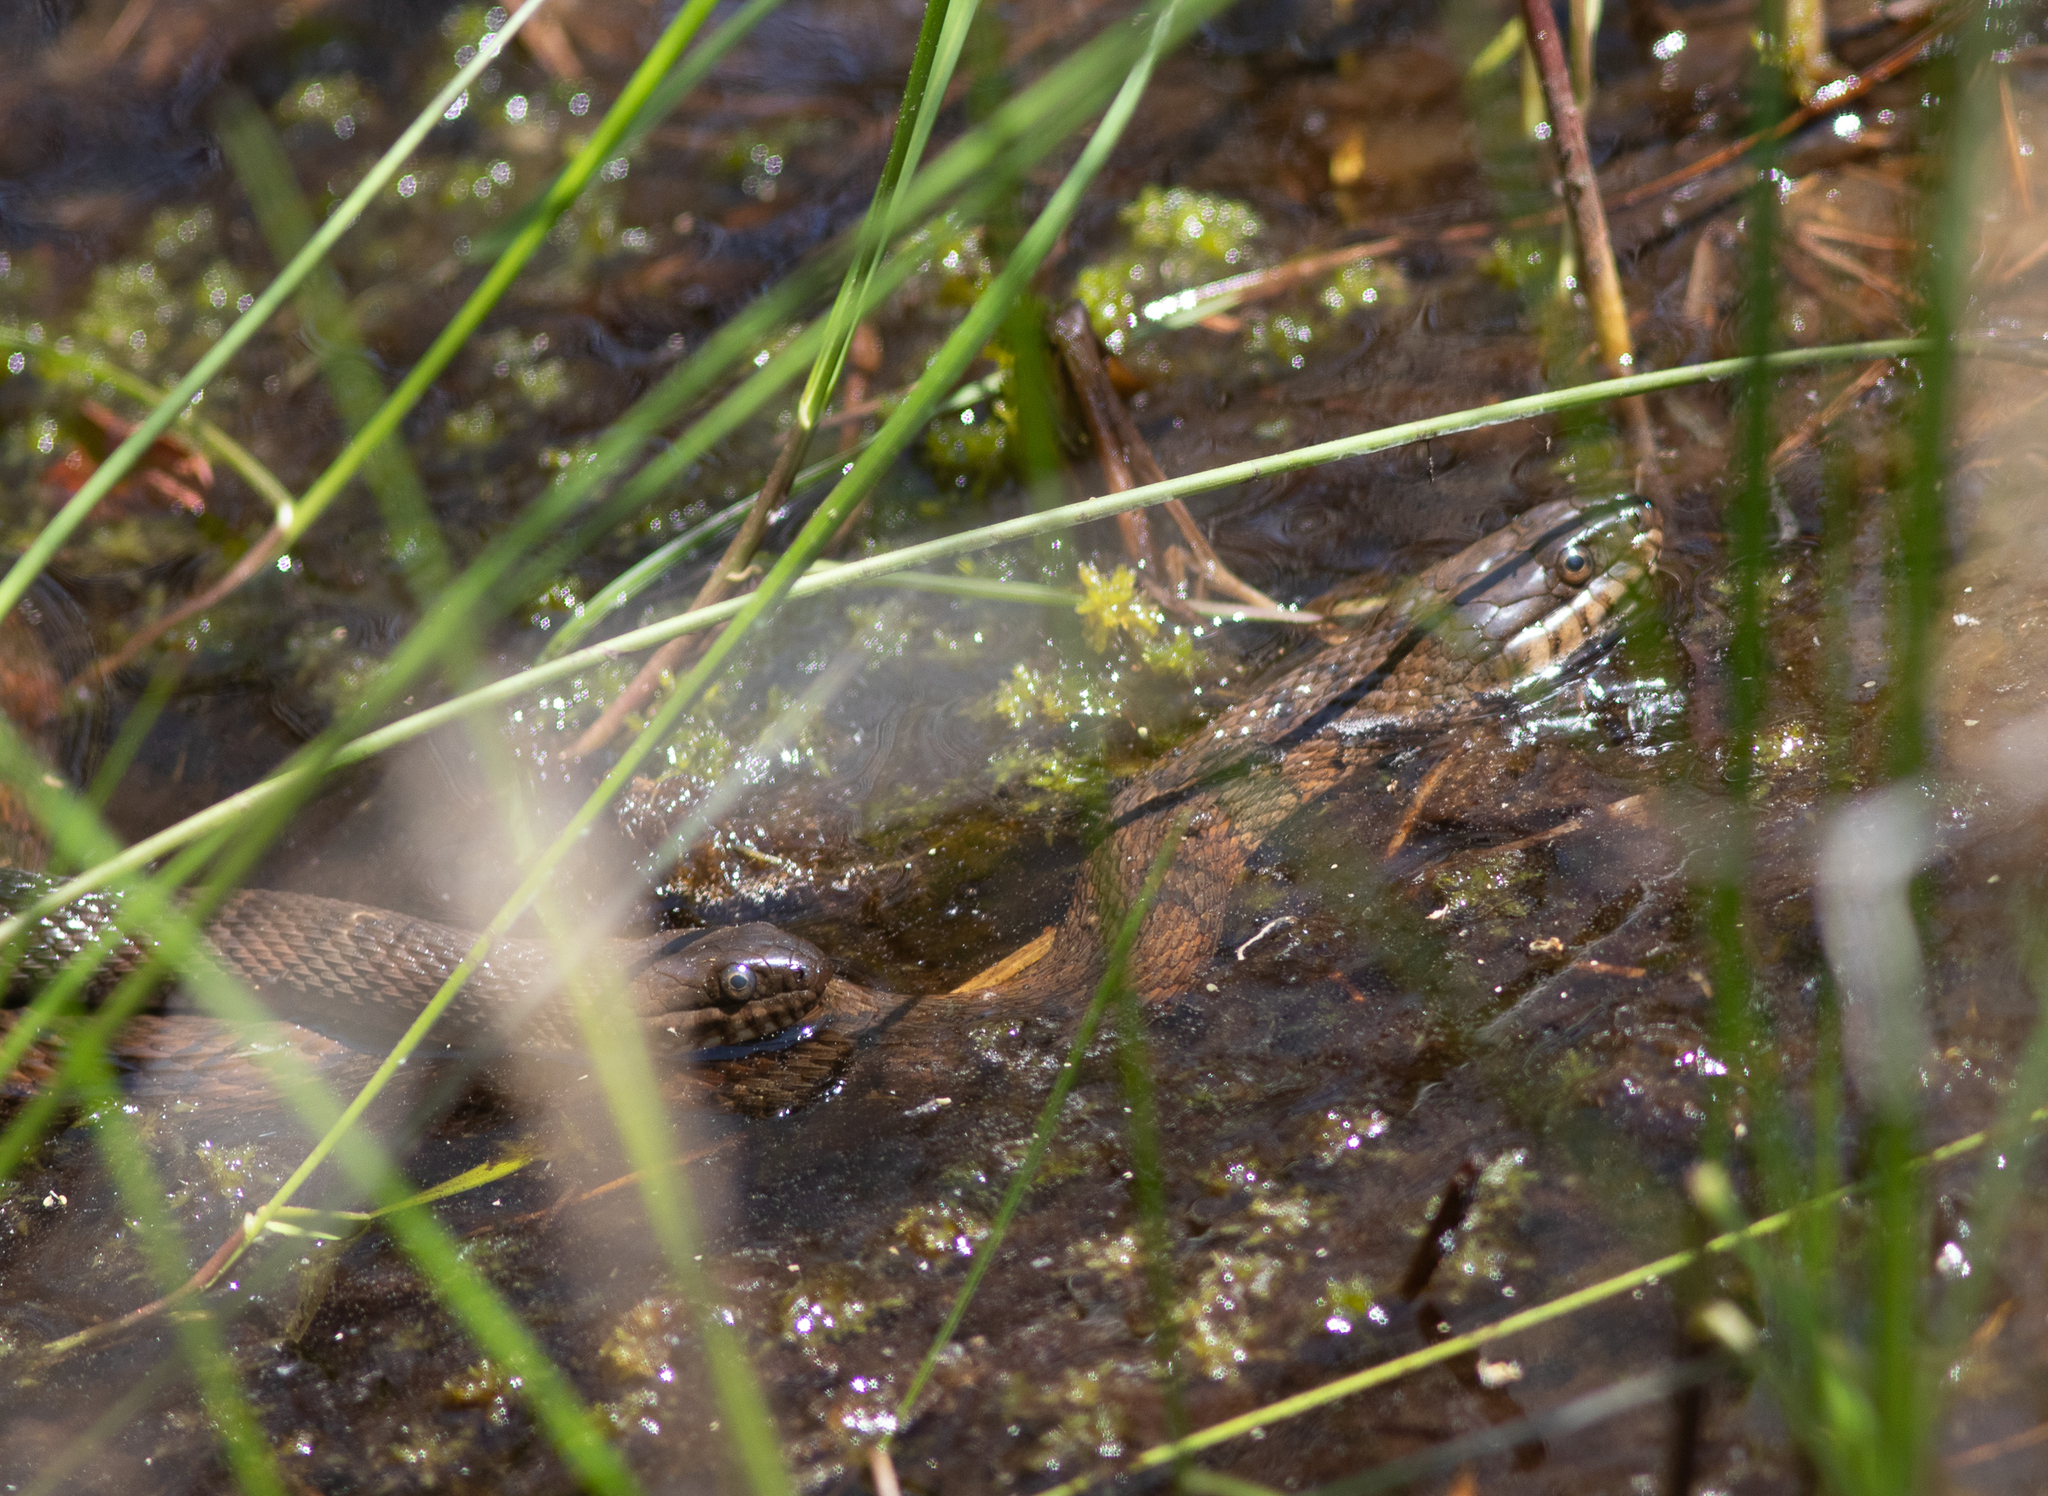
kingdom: Animalia
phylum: Chordata
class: Squamata
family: Colubridae
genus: Nerodia
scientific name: Nerodia sipedon
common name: Northern water snake
